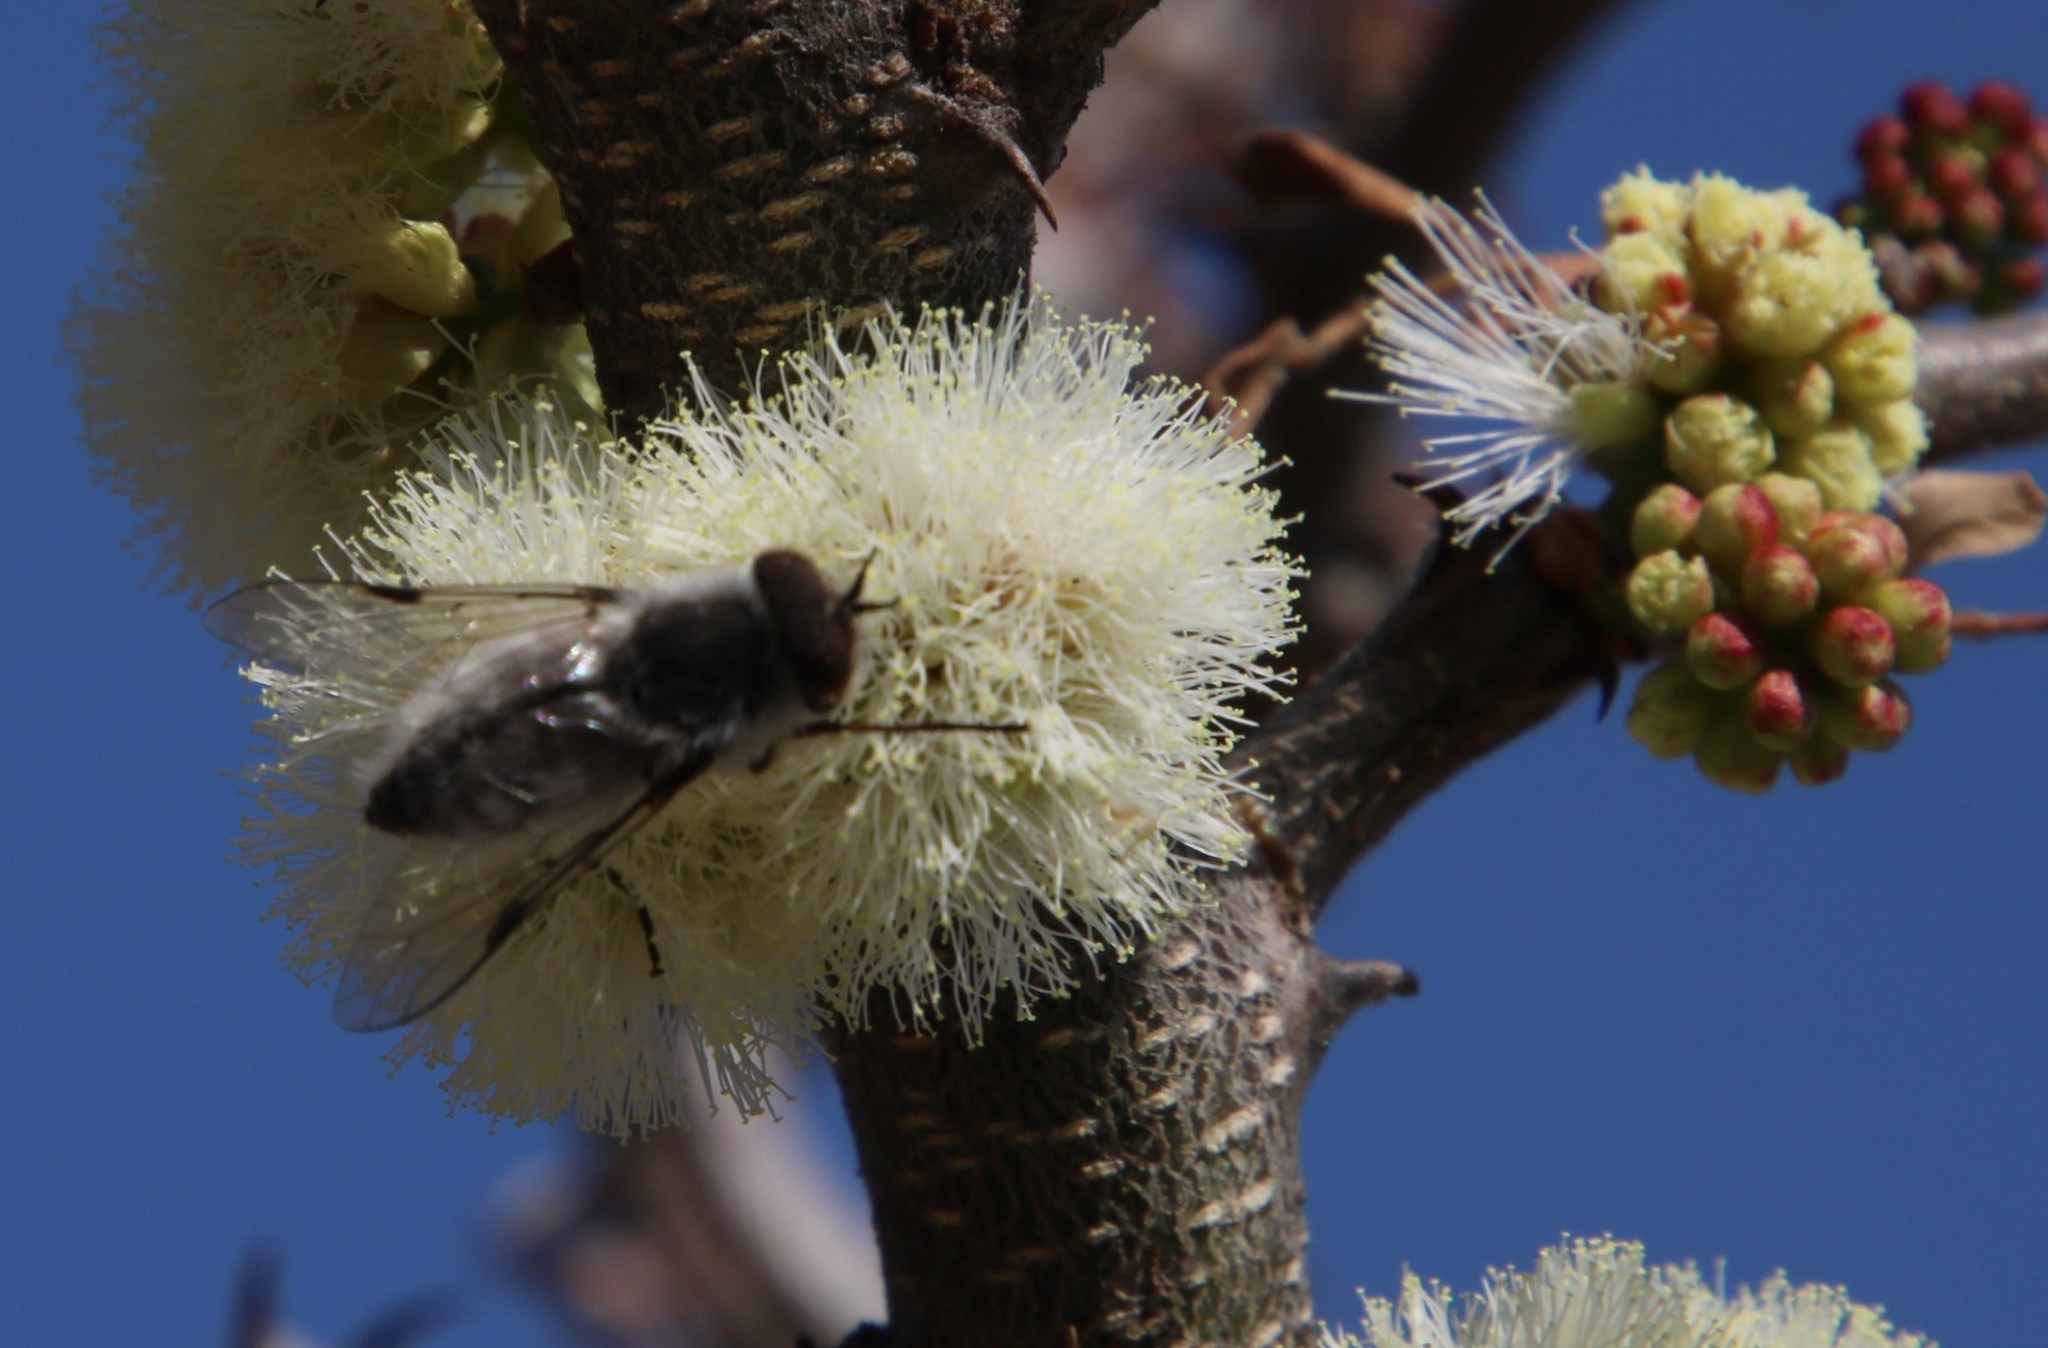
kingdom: Animalia
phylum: Arthropoda
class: Insecta
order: Diptera
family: Tabanidae
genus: Rhigioglossa
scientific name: Rhigioglossa decora
